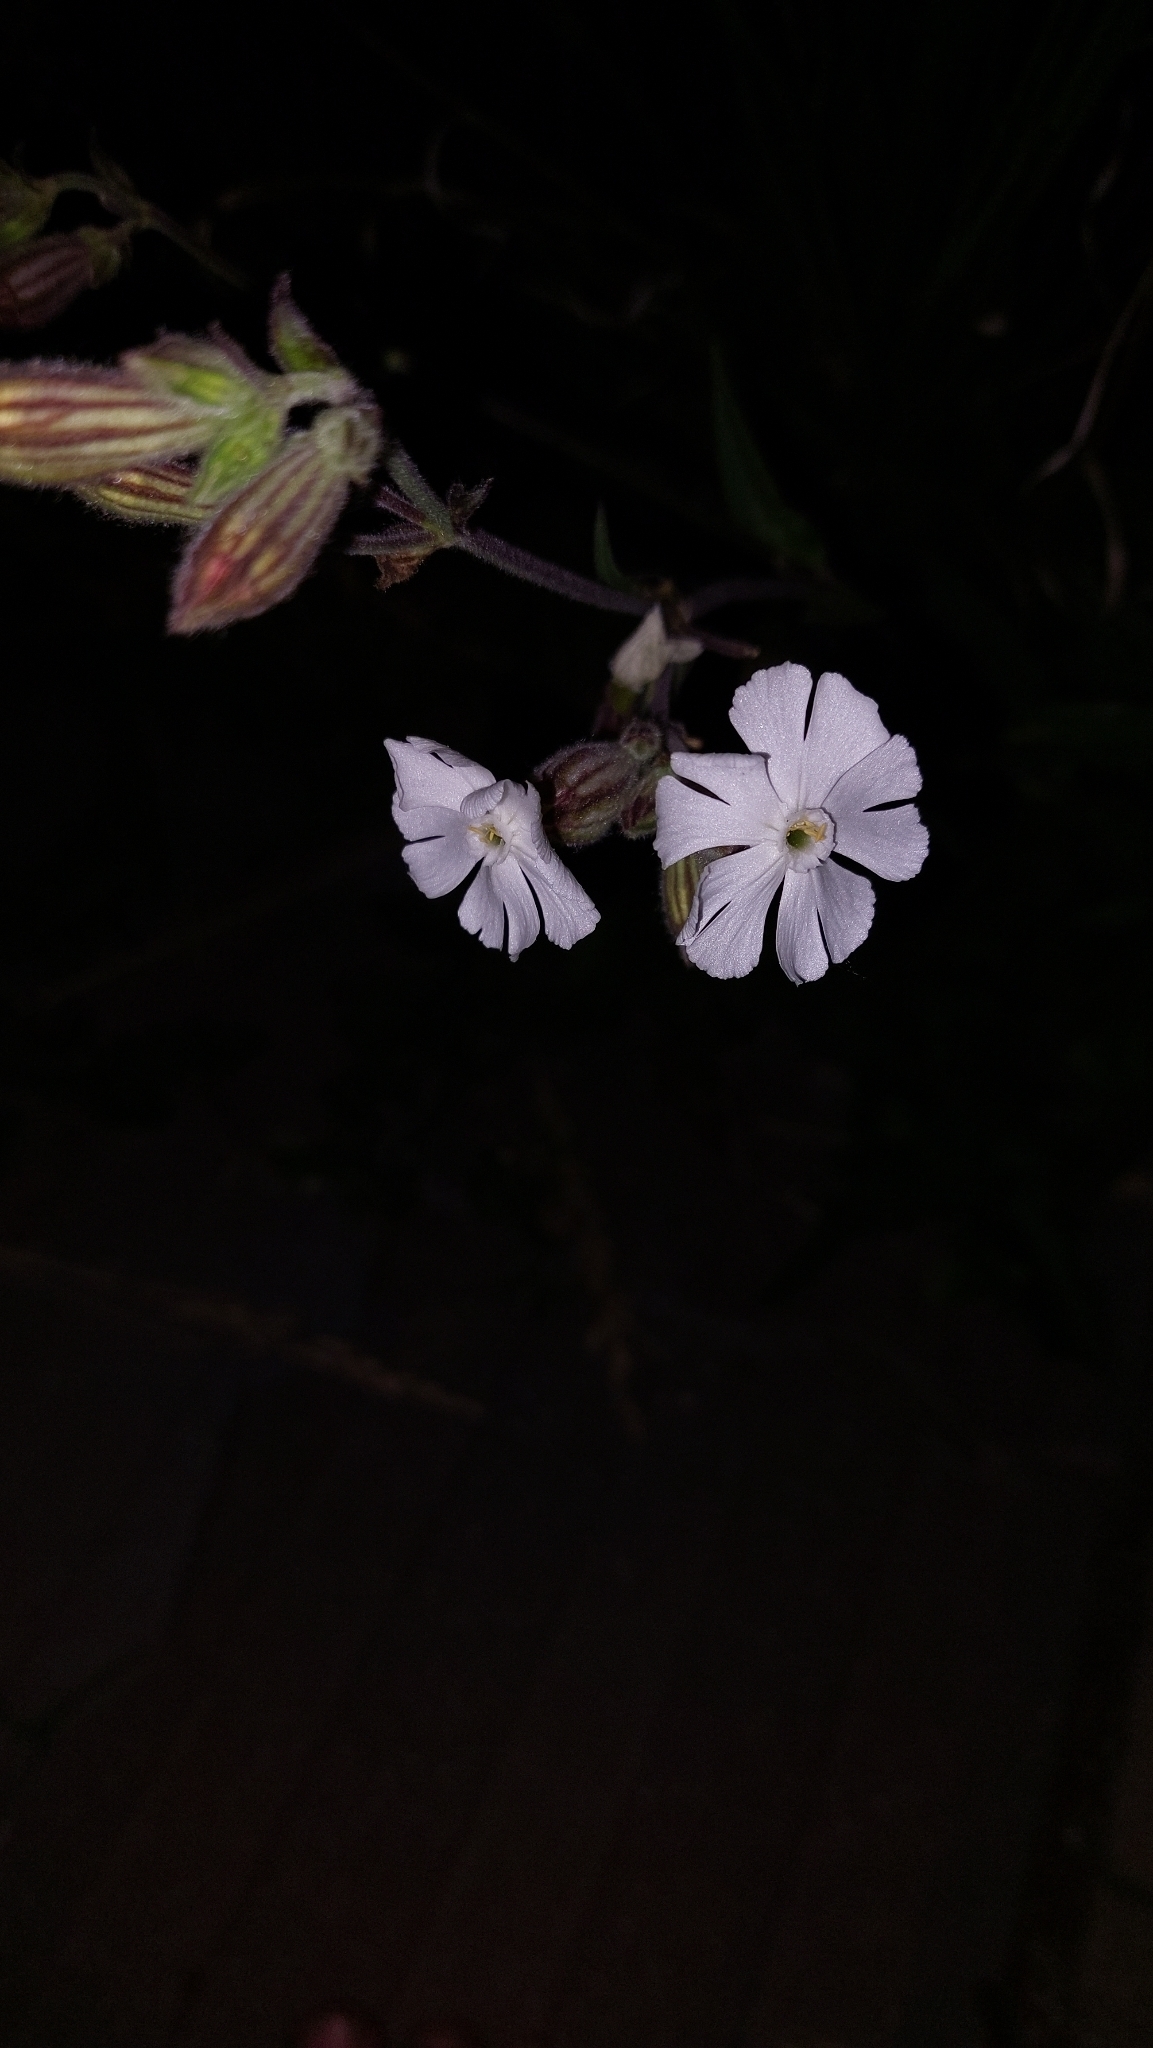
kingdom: Plantae
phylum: Tracheophyta
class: Magnoliopsida
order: Caryophyllales
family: Caryophyllaceae
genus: Silene
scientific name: Silene latifolia
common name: White campion
